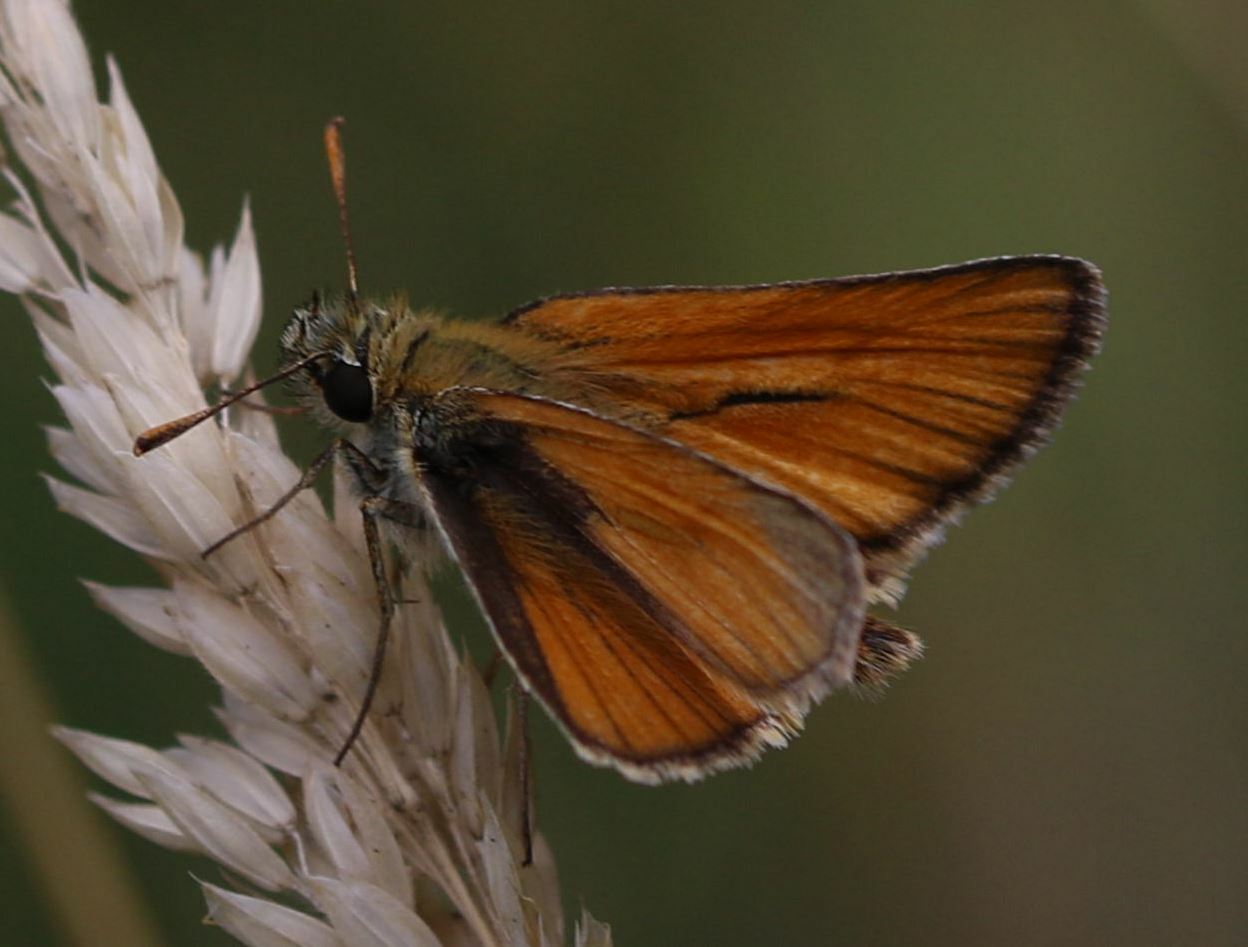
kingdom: Animalia
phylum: Arthropoda
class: Insecta
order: Lepidoptera
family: Hesperiidae
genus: Thymelicus
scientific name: Thymelicus sylvestris
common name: Small skipper
